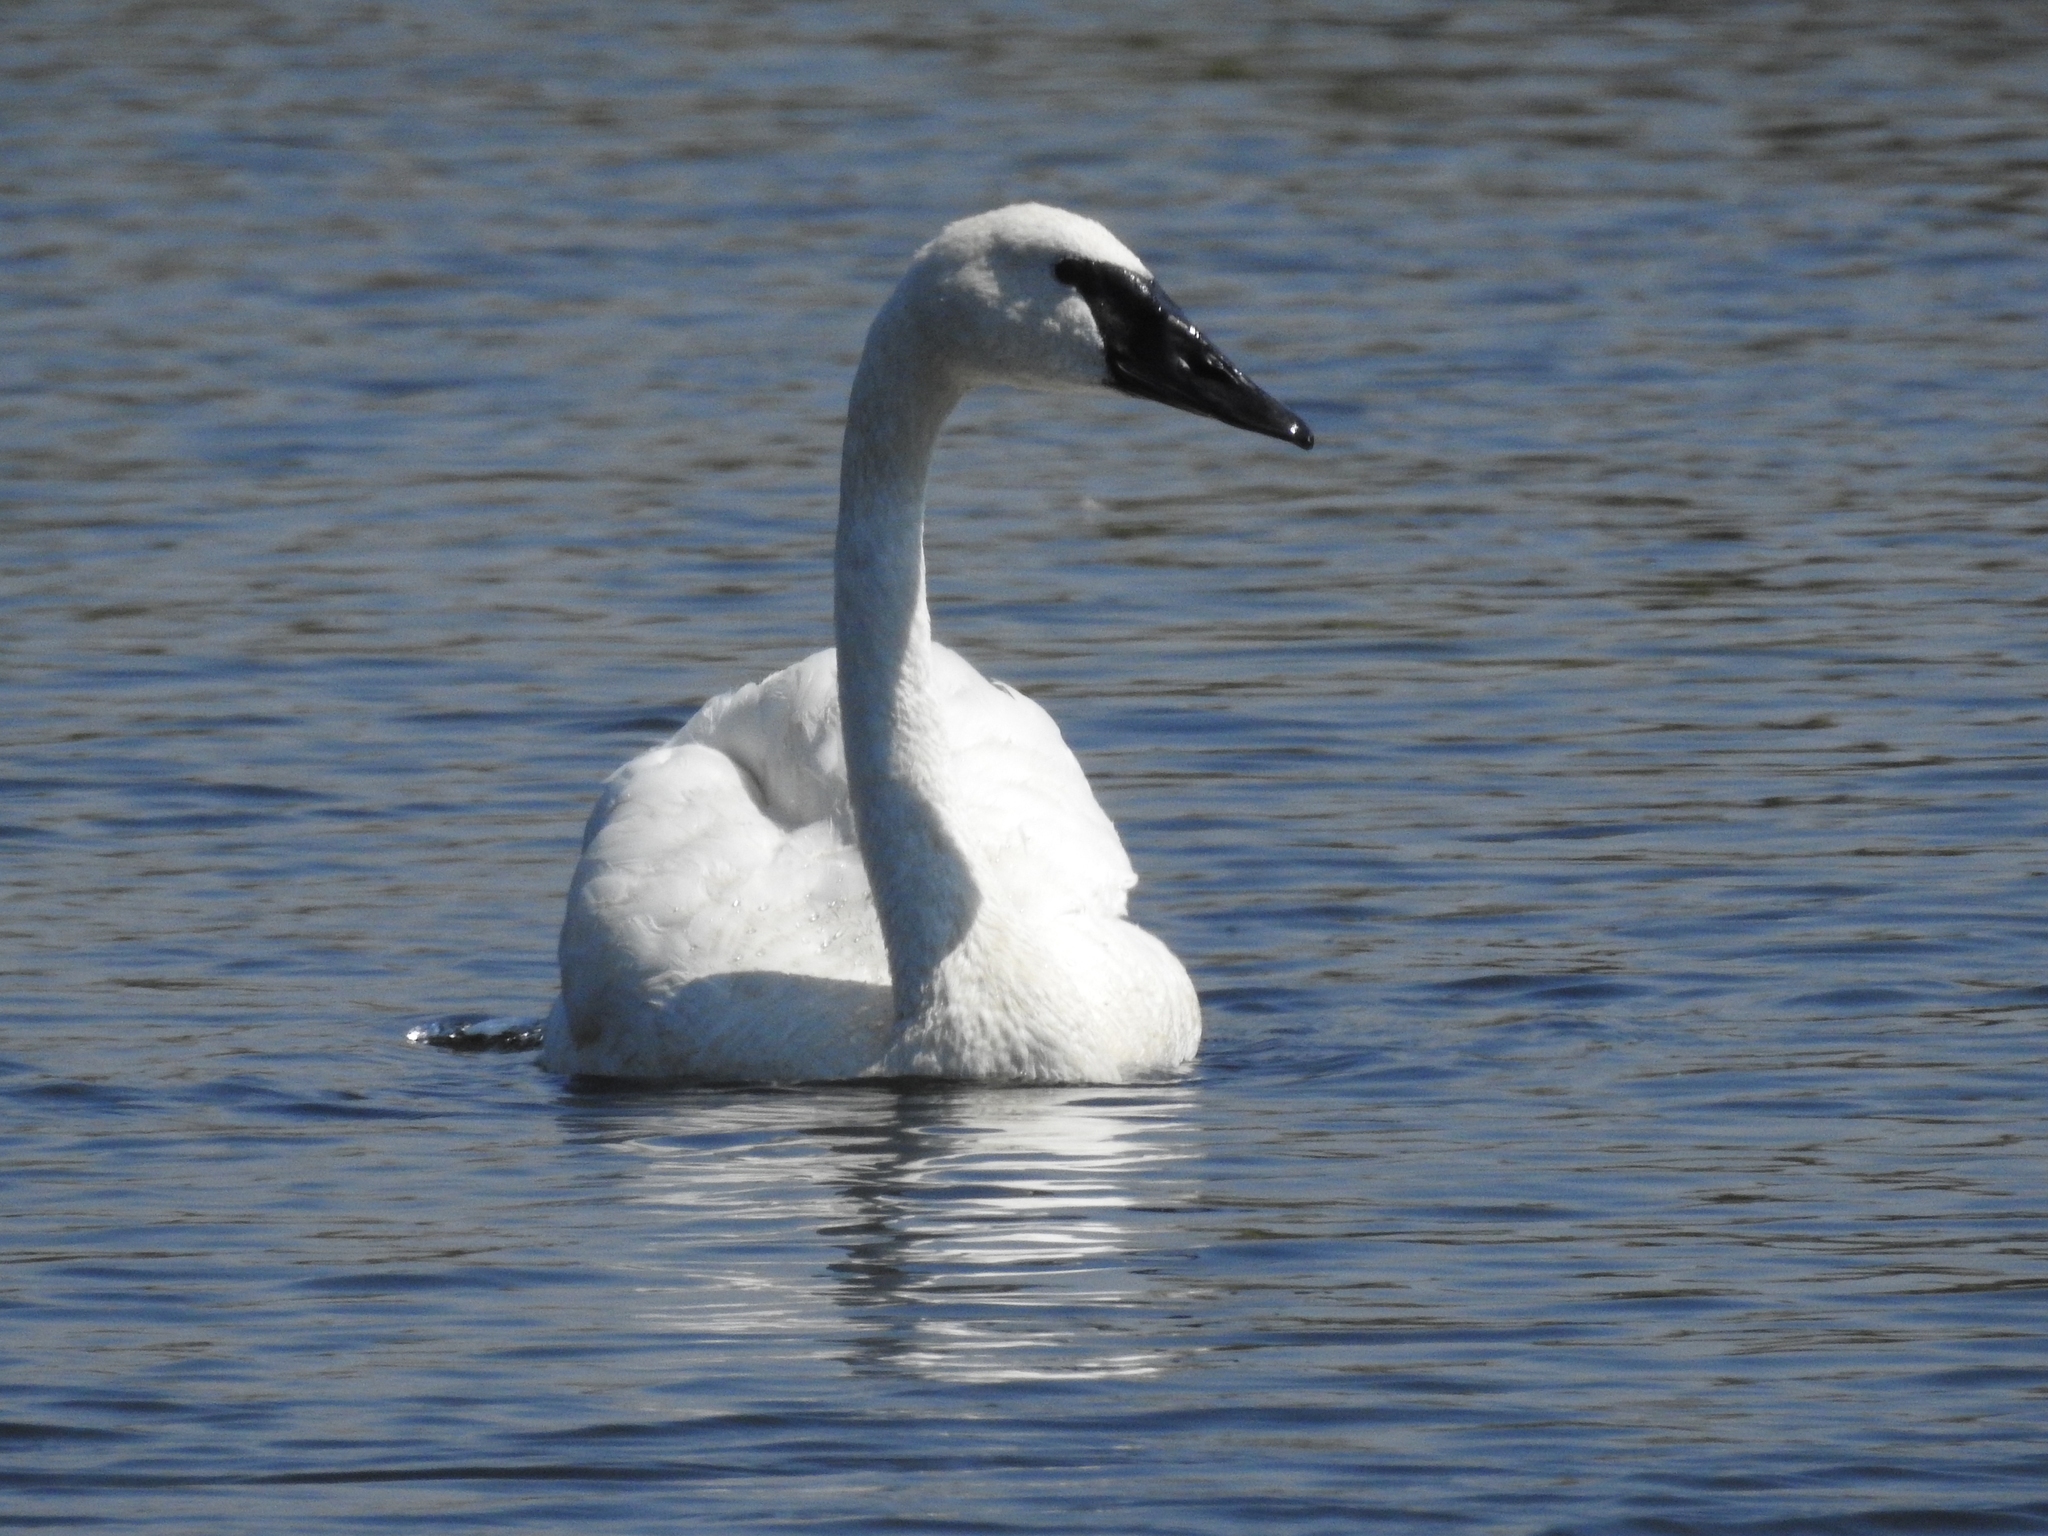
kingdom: Animalia
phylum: Chordata
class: Aves
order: Anseriformes
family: Anatidae
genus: Cygnus
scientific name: Cygnus buccinator
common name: Trumpeter swan
